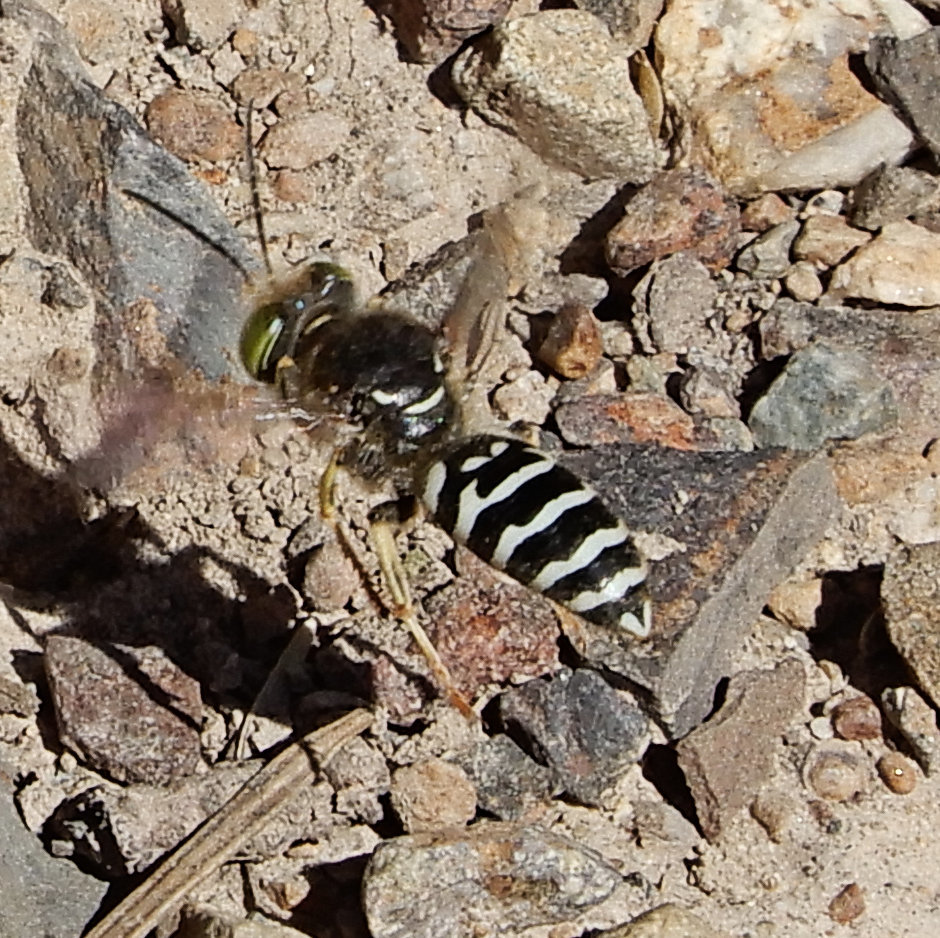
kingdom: Animalia
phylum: Arthropoda
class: Insecta
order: Hymenoptera
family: Crabronidae
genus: Steniolia
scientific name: Steniolia obliqua
